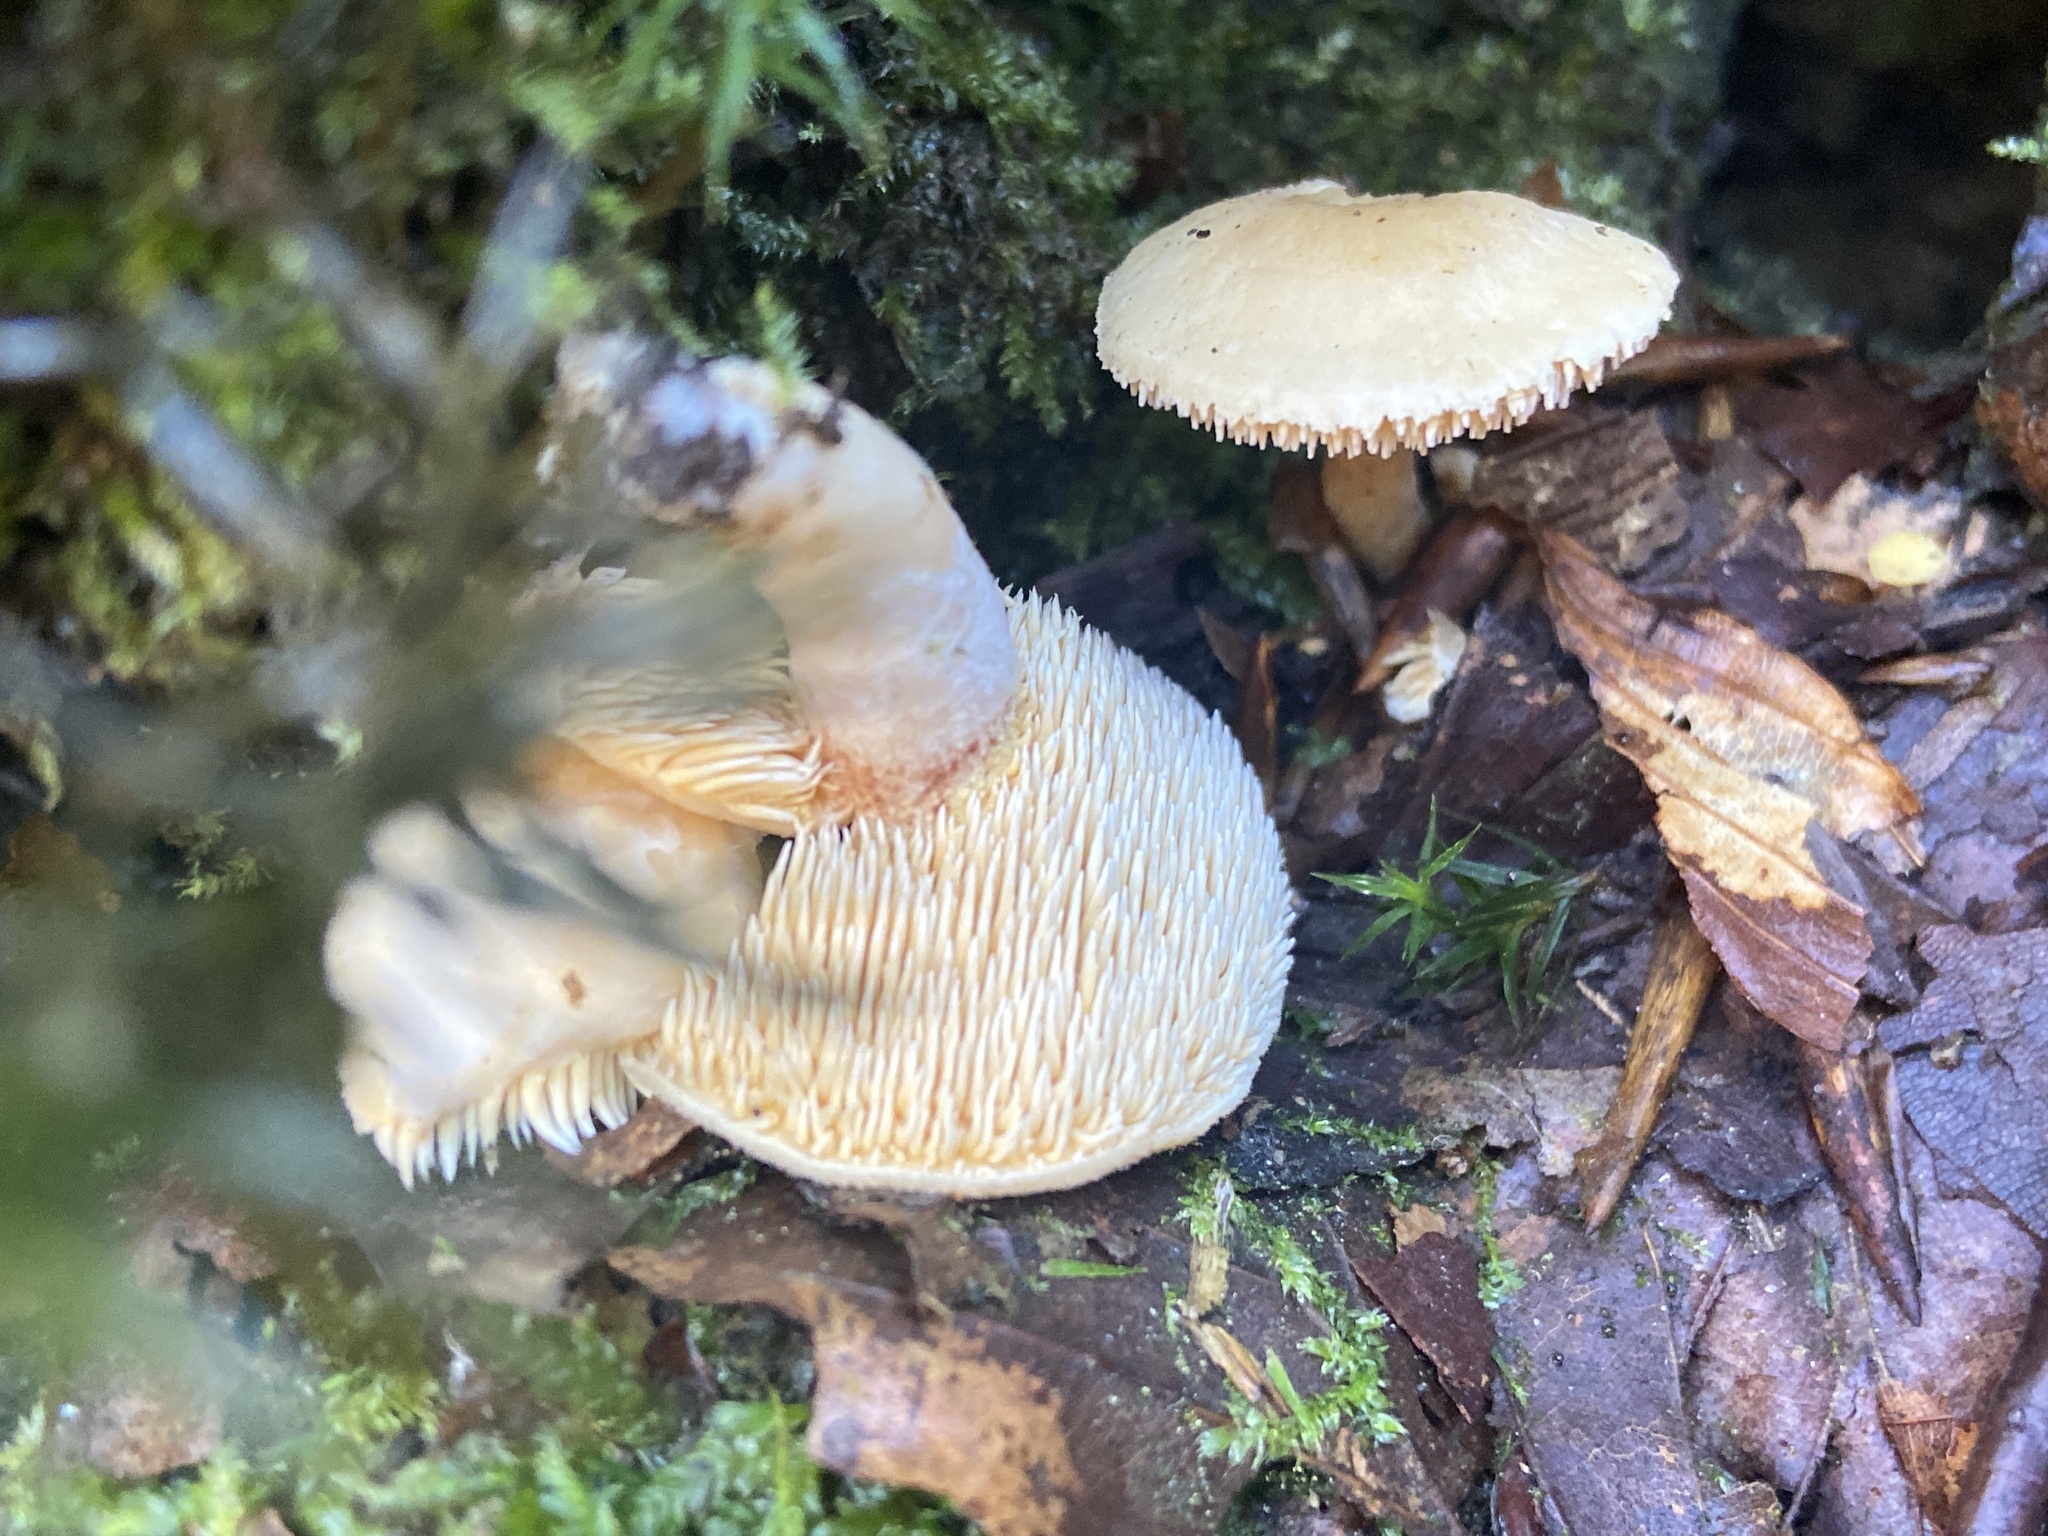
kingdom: Fungi
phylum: Basidiomycota
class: Agaricomycetes
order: Cantharellales
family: Hydnaceae
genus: Hydnum
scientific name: Hydnum repandum
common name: Wood hedgehog
